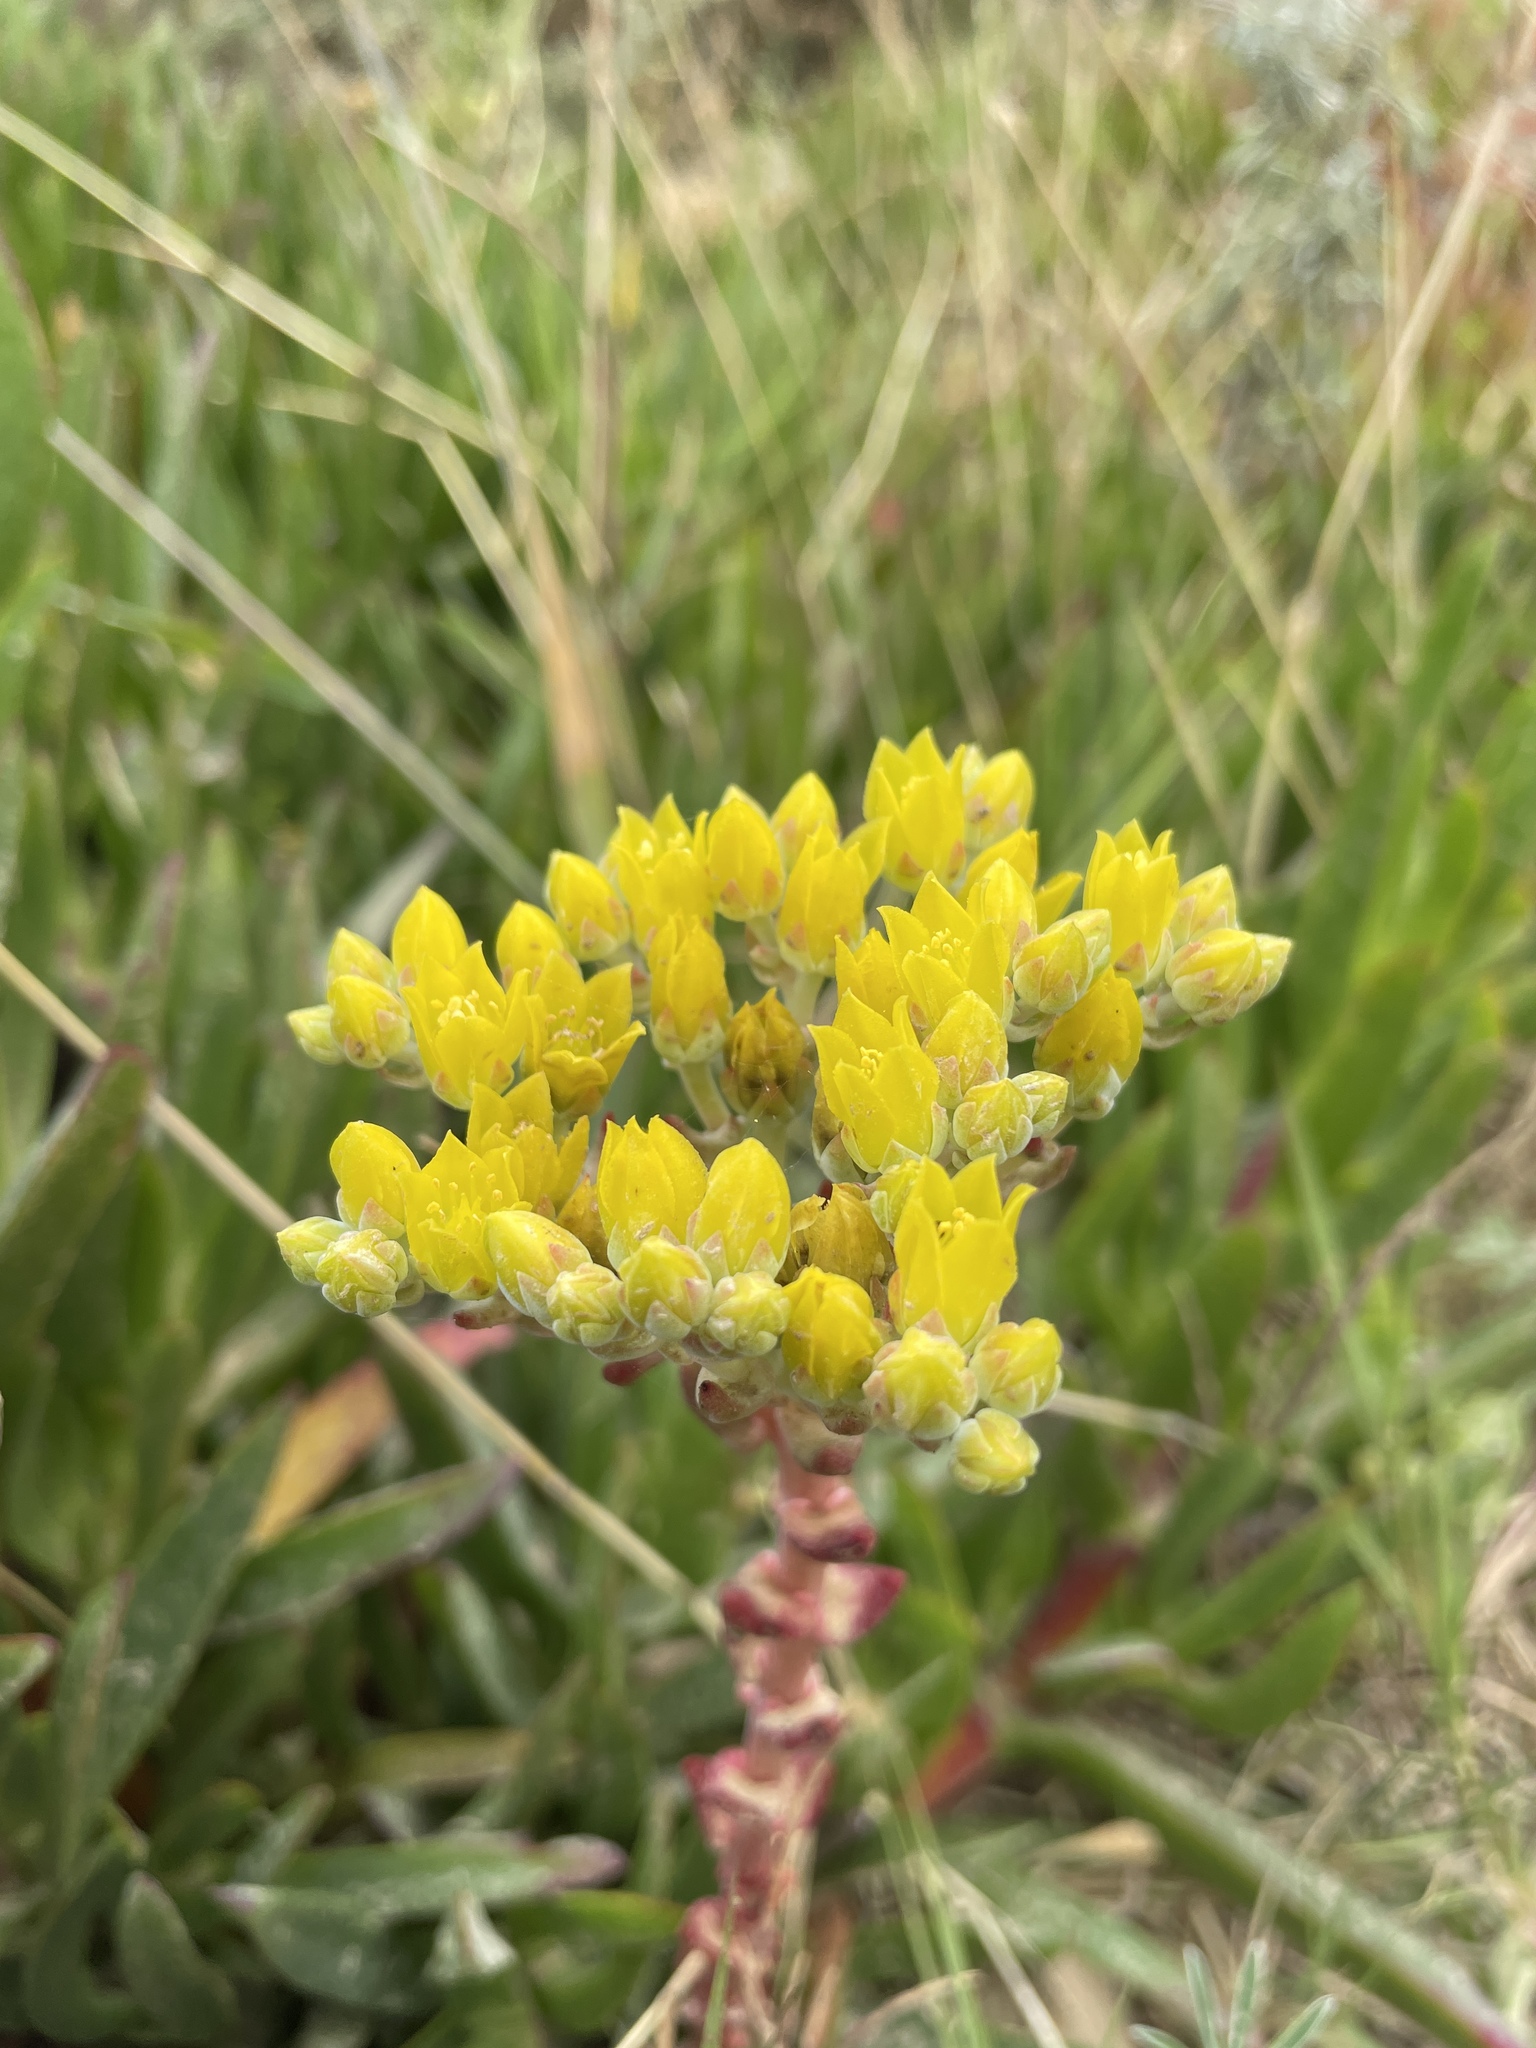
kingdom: Plantae
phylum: Tracheophyta
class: Magnoliopsida
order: Saxifragales
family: Crassulaceae
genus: Dudleya
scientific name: Dudleya caespitosa
